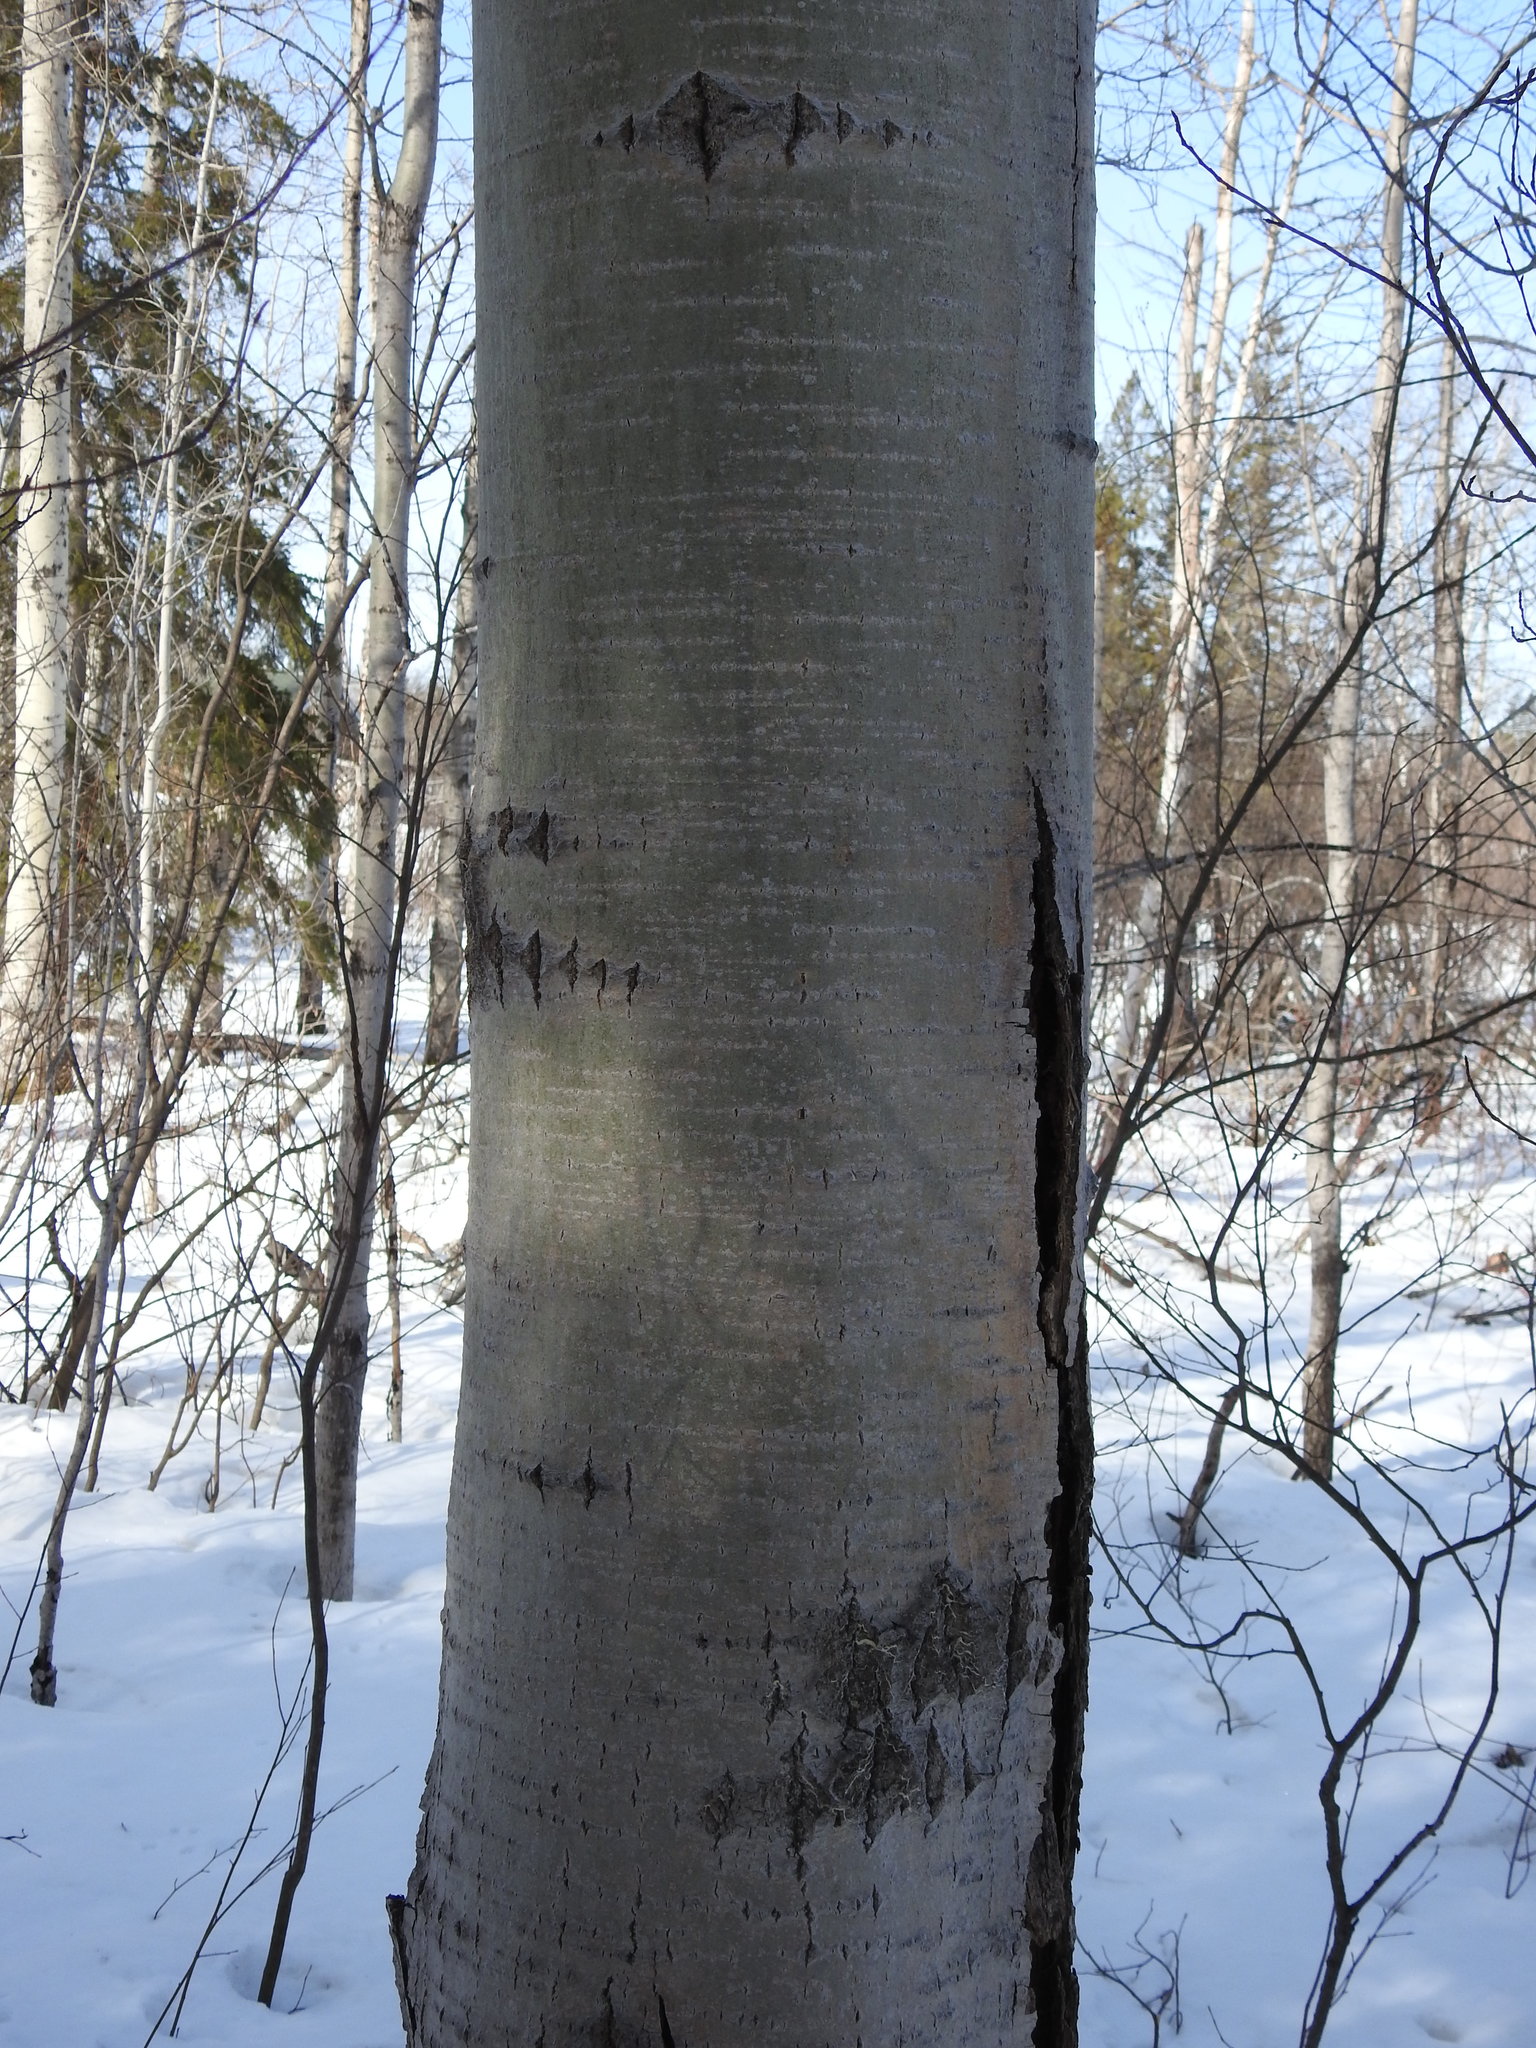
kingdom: Plantae
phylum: Tracheophyta
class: Magnoliopsida
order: Malpighiales
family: Salicaceae
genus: Populus
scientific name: Populus tremuloides
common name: Quaking aspen
